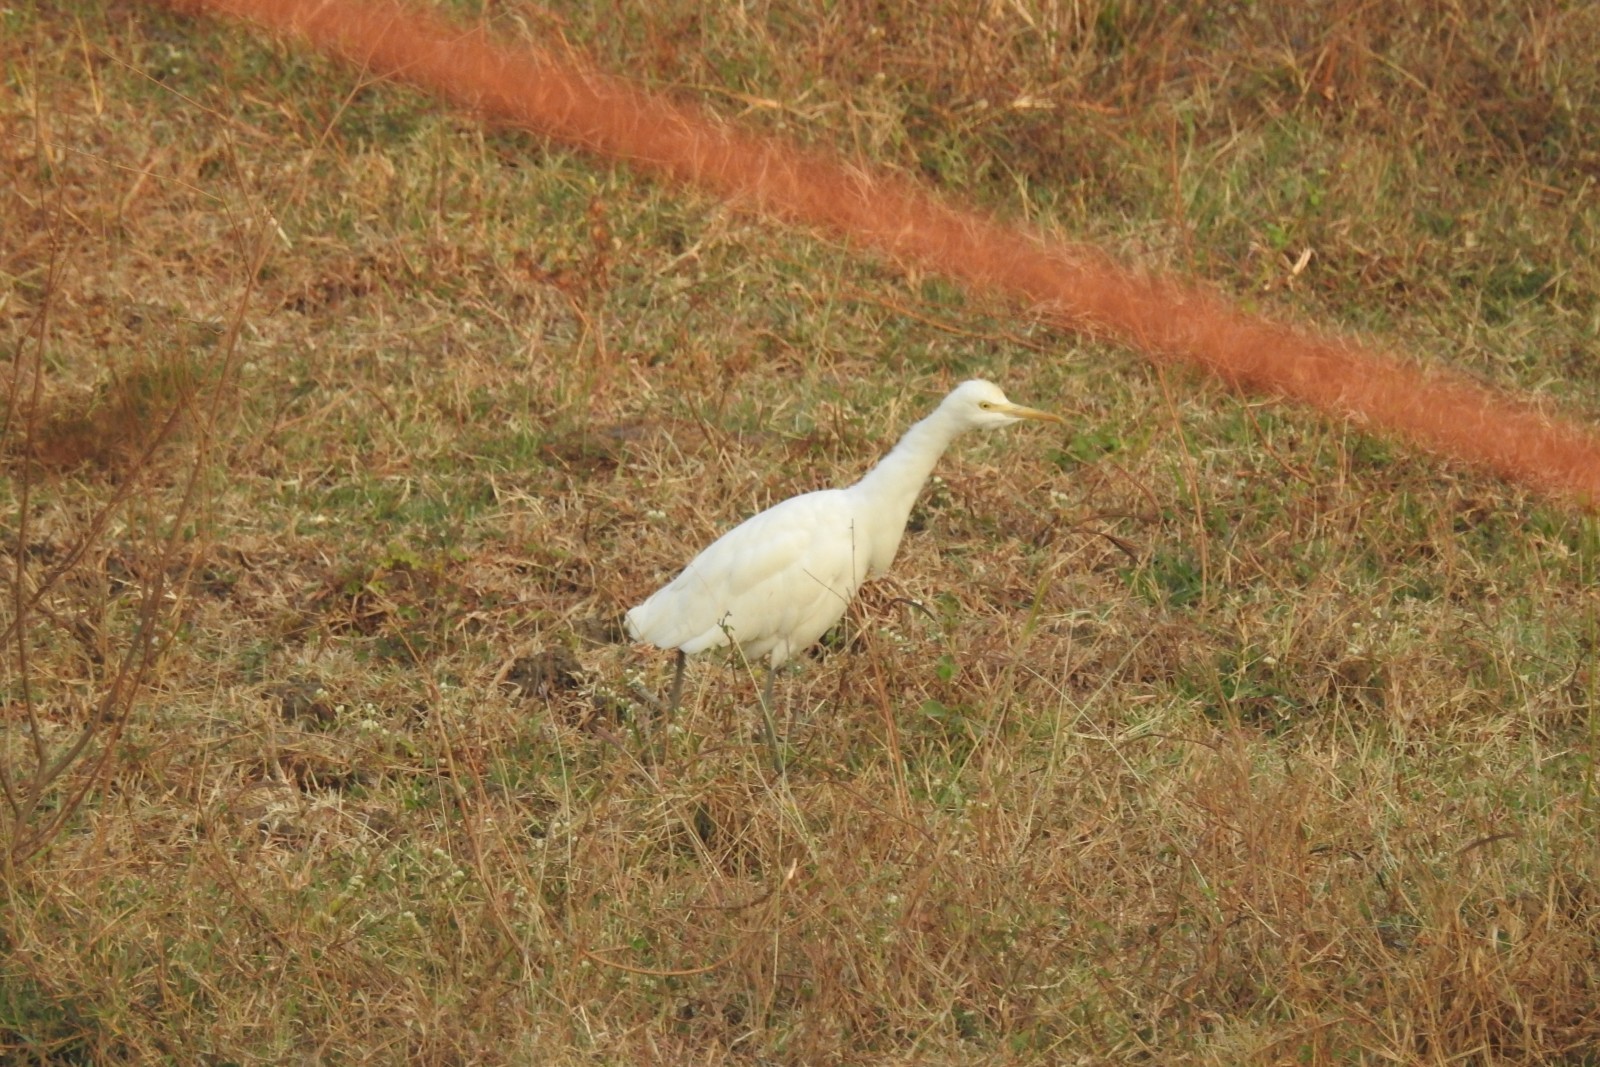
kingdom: Animalia
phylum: Chordata
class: Aves
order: Pelecaniformes
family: Ardeidae
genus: Bubulcus
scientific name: Bubulcus coromandus
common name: Eastern cattle egret
